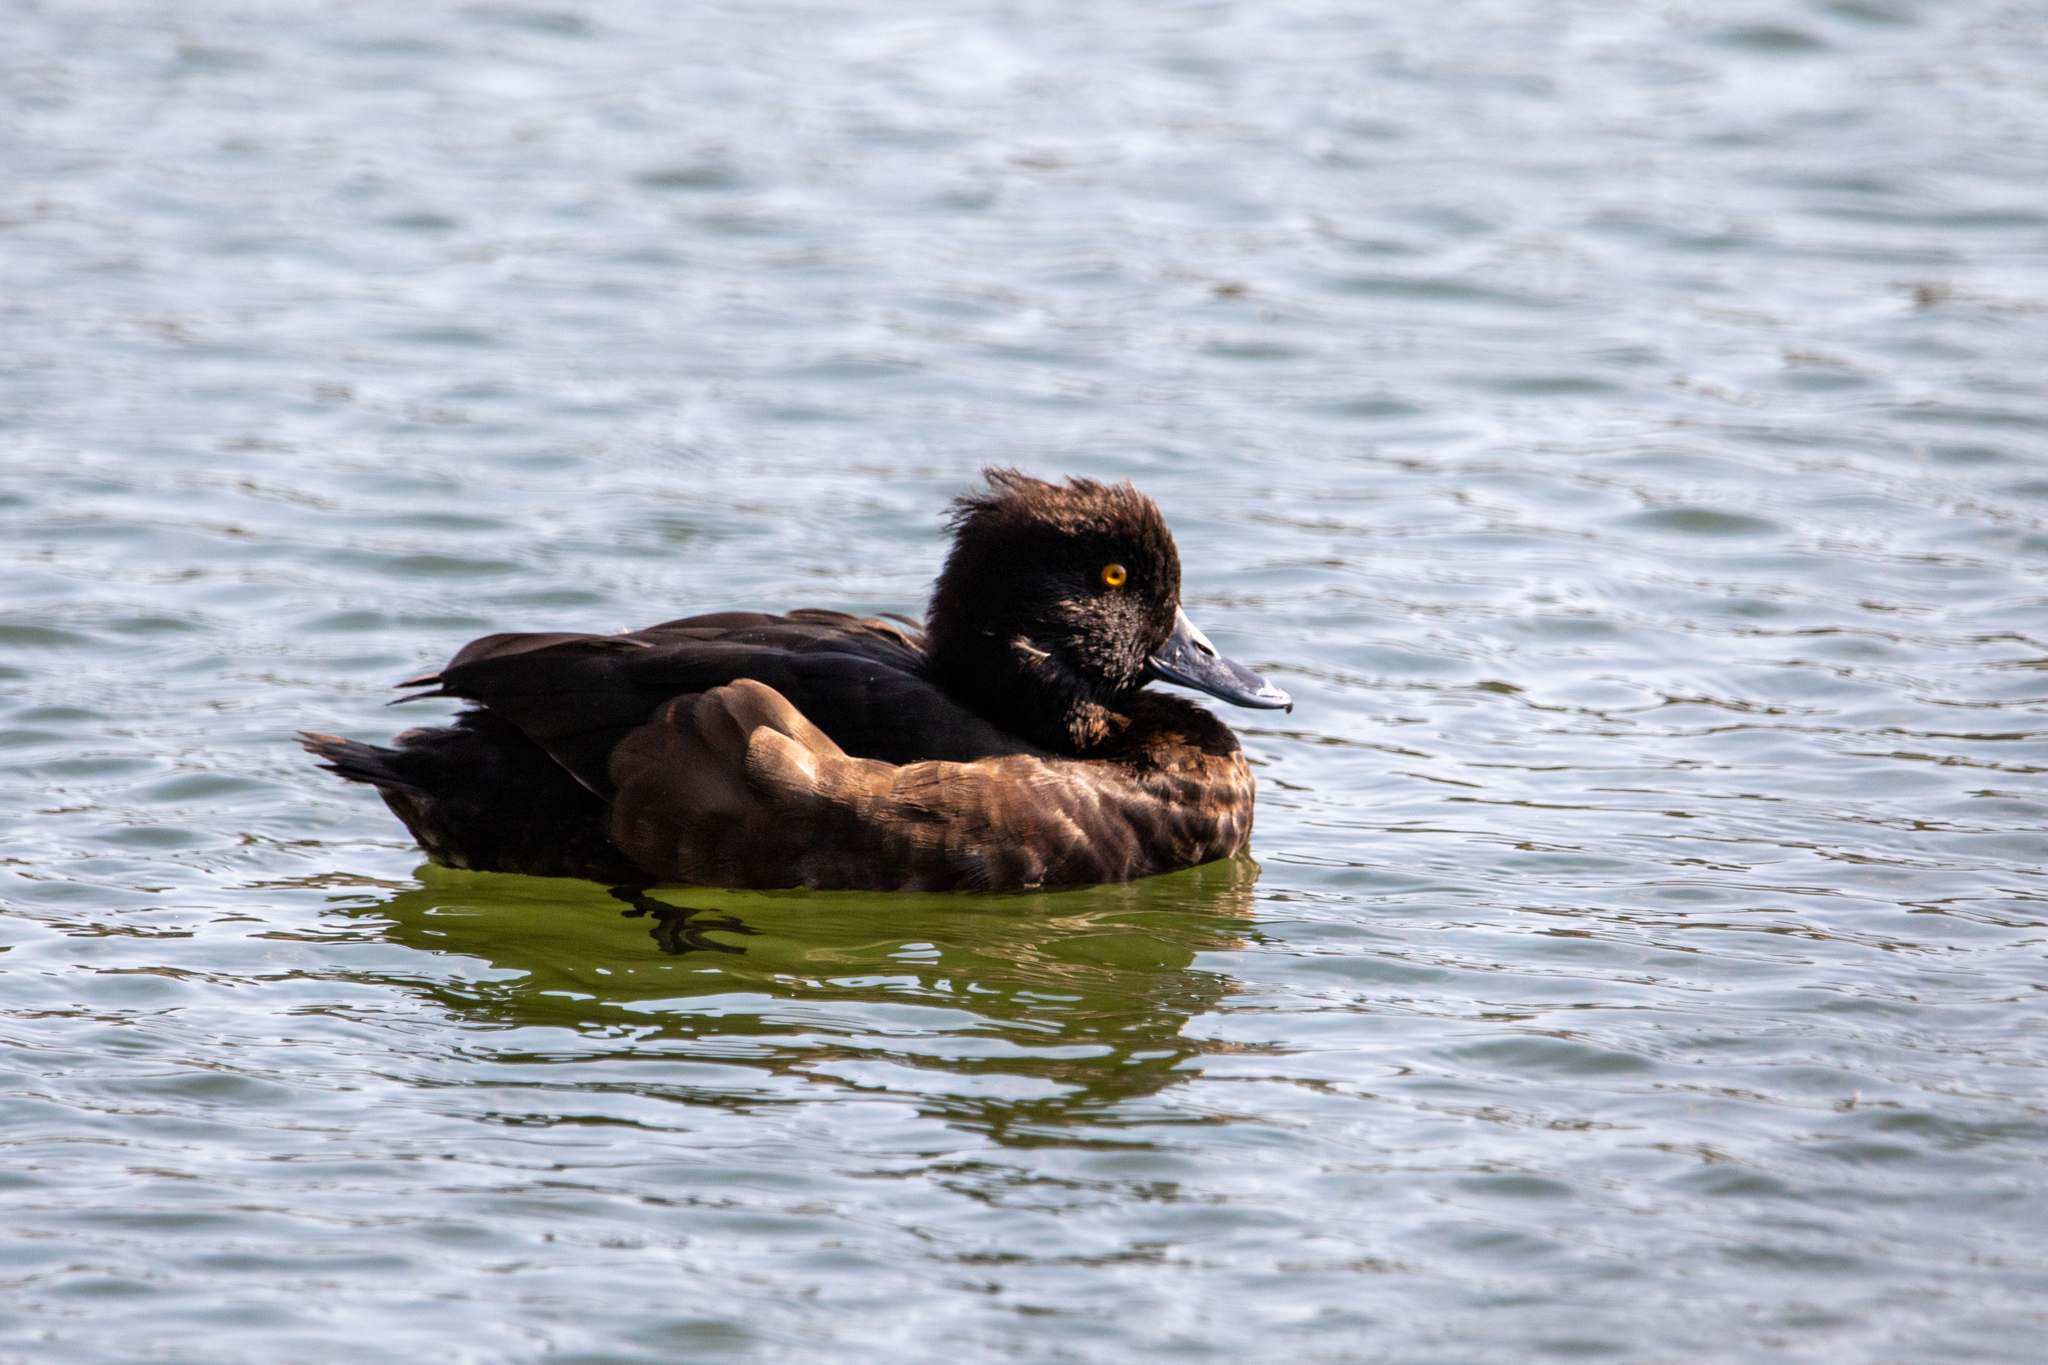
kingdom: Animalia
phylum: Chordata
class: Aves
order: Anseriformes
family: Anatidae
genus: Aythya
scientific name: Aythya fuligula
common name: Tufted duck
